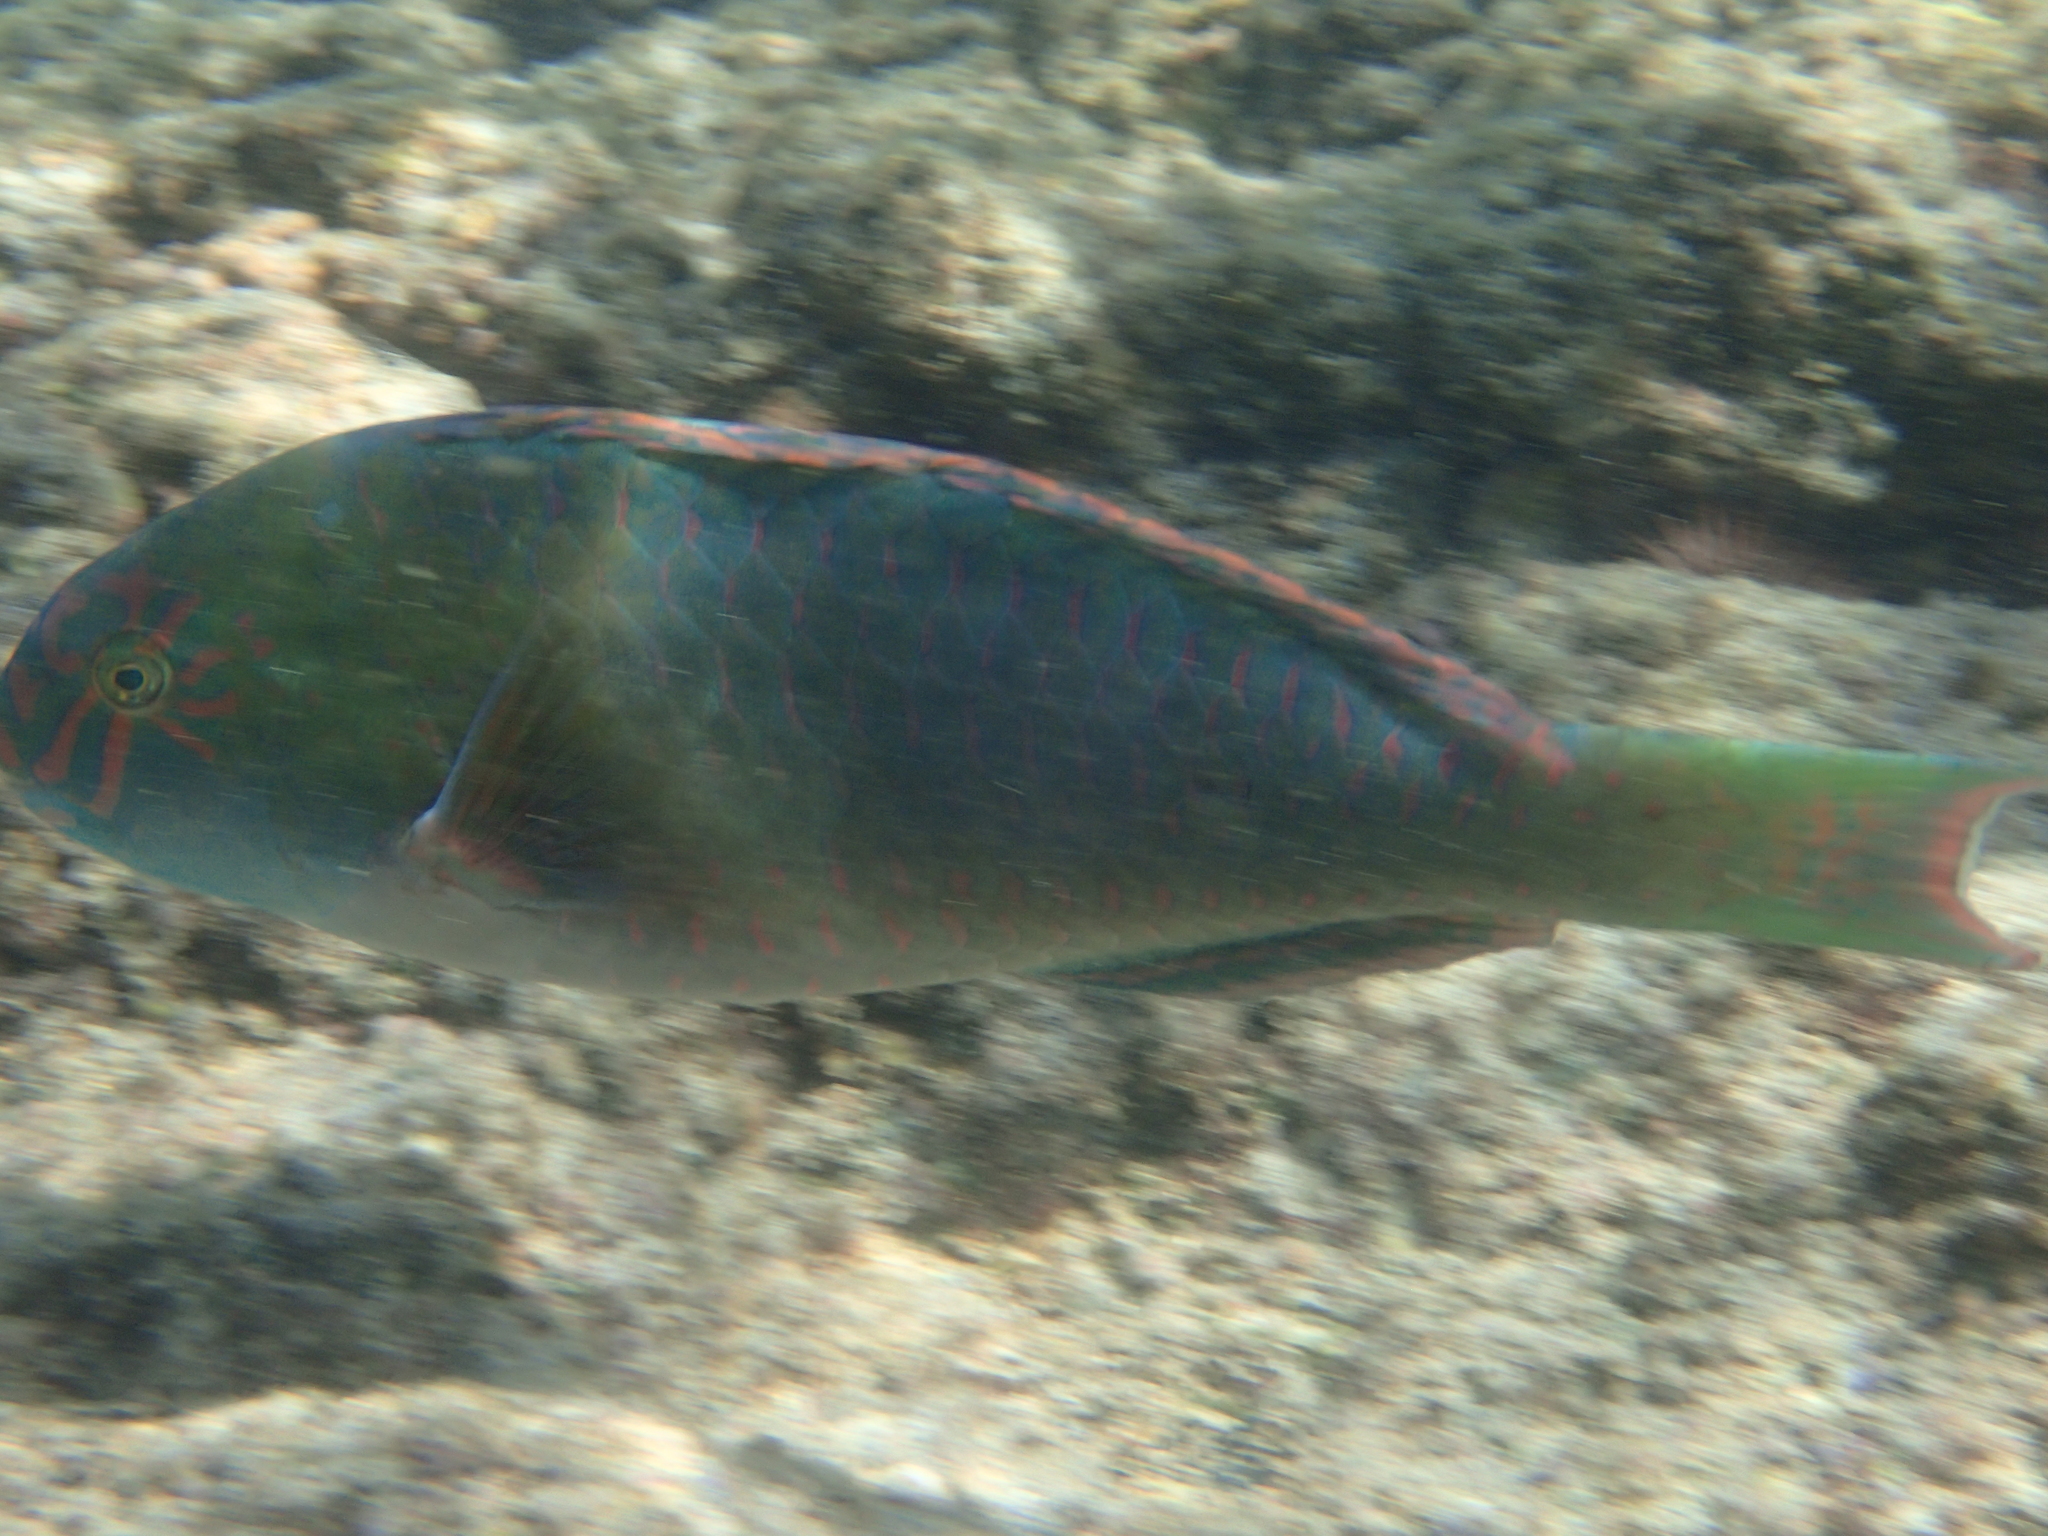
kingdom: Animalia
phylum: Chordata
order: Perciformes
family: Scaridae
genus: Calotomus
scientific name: Calotomus carolinus
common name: Bucktooth
